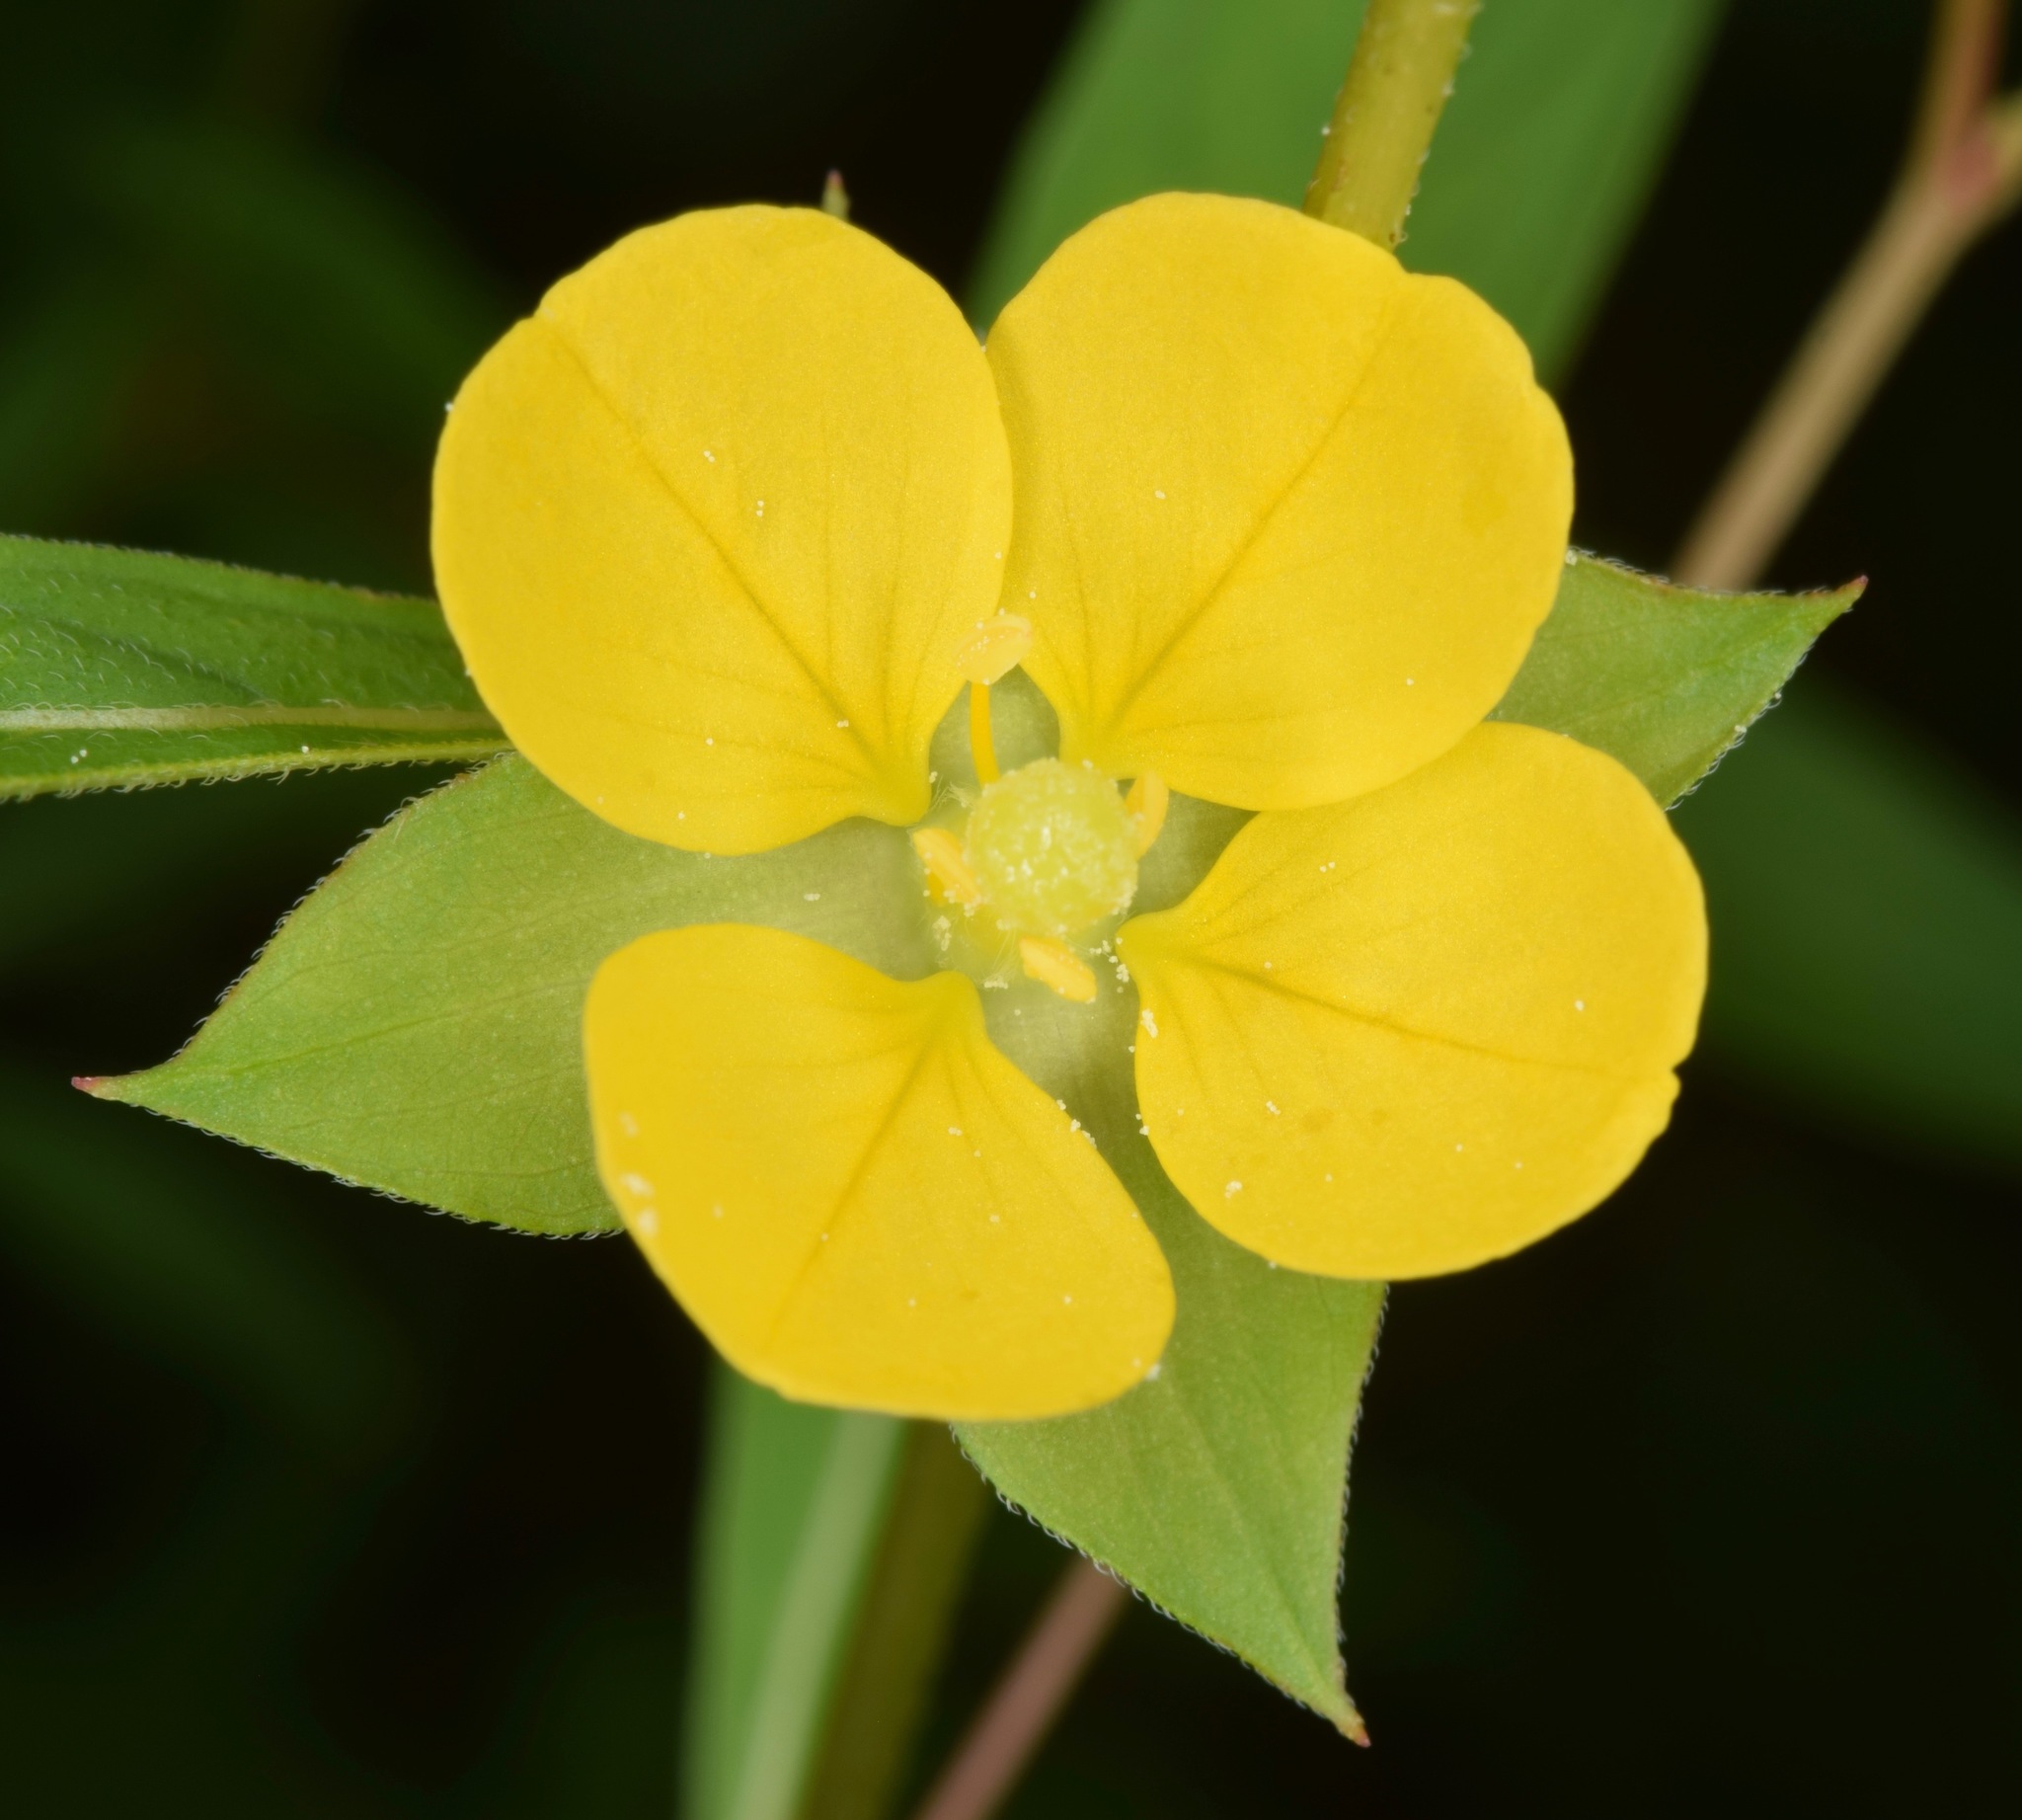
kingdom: Plantae
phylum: Tracheophyta
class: Magnoliopsida
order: Myrtales
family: Onagraceae
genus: Ludwigia
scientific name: Ludwigia alternifolia
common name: Rattlebox
